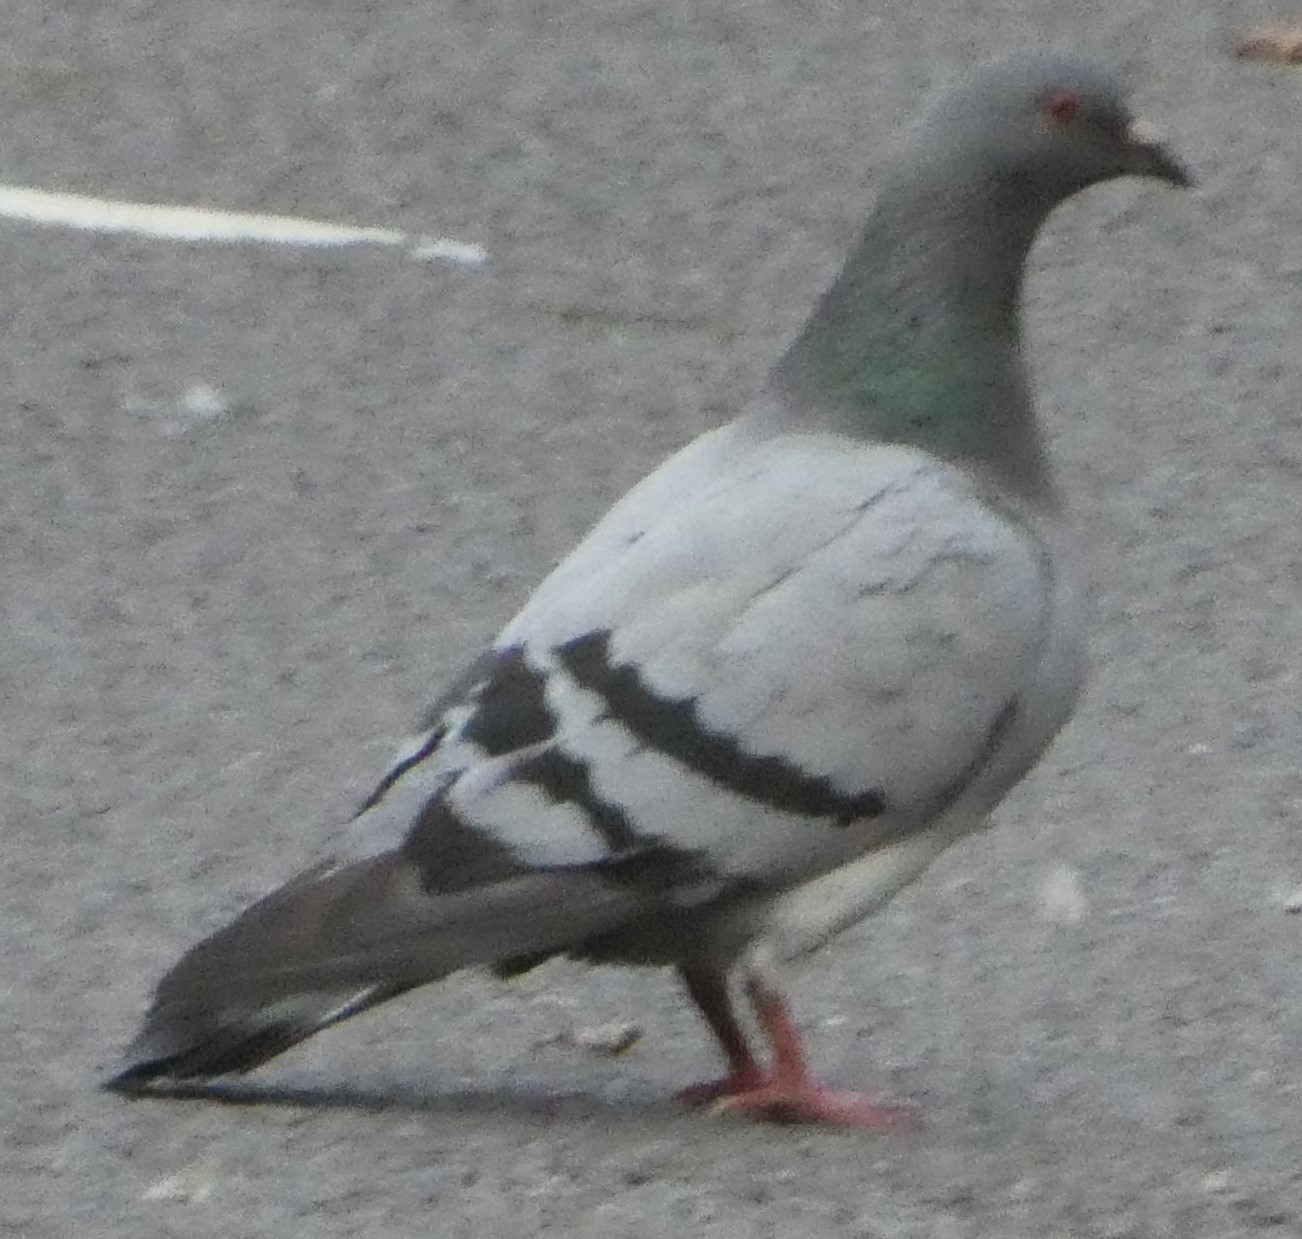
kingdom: Animalia
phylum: Chordata
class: Aves
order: Columbiformes
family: Columbidae
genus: Columba
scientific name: Columba livia
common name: Rock pigeon
